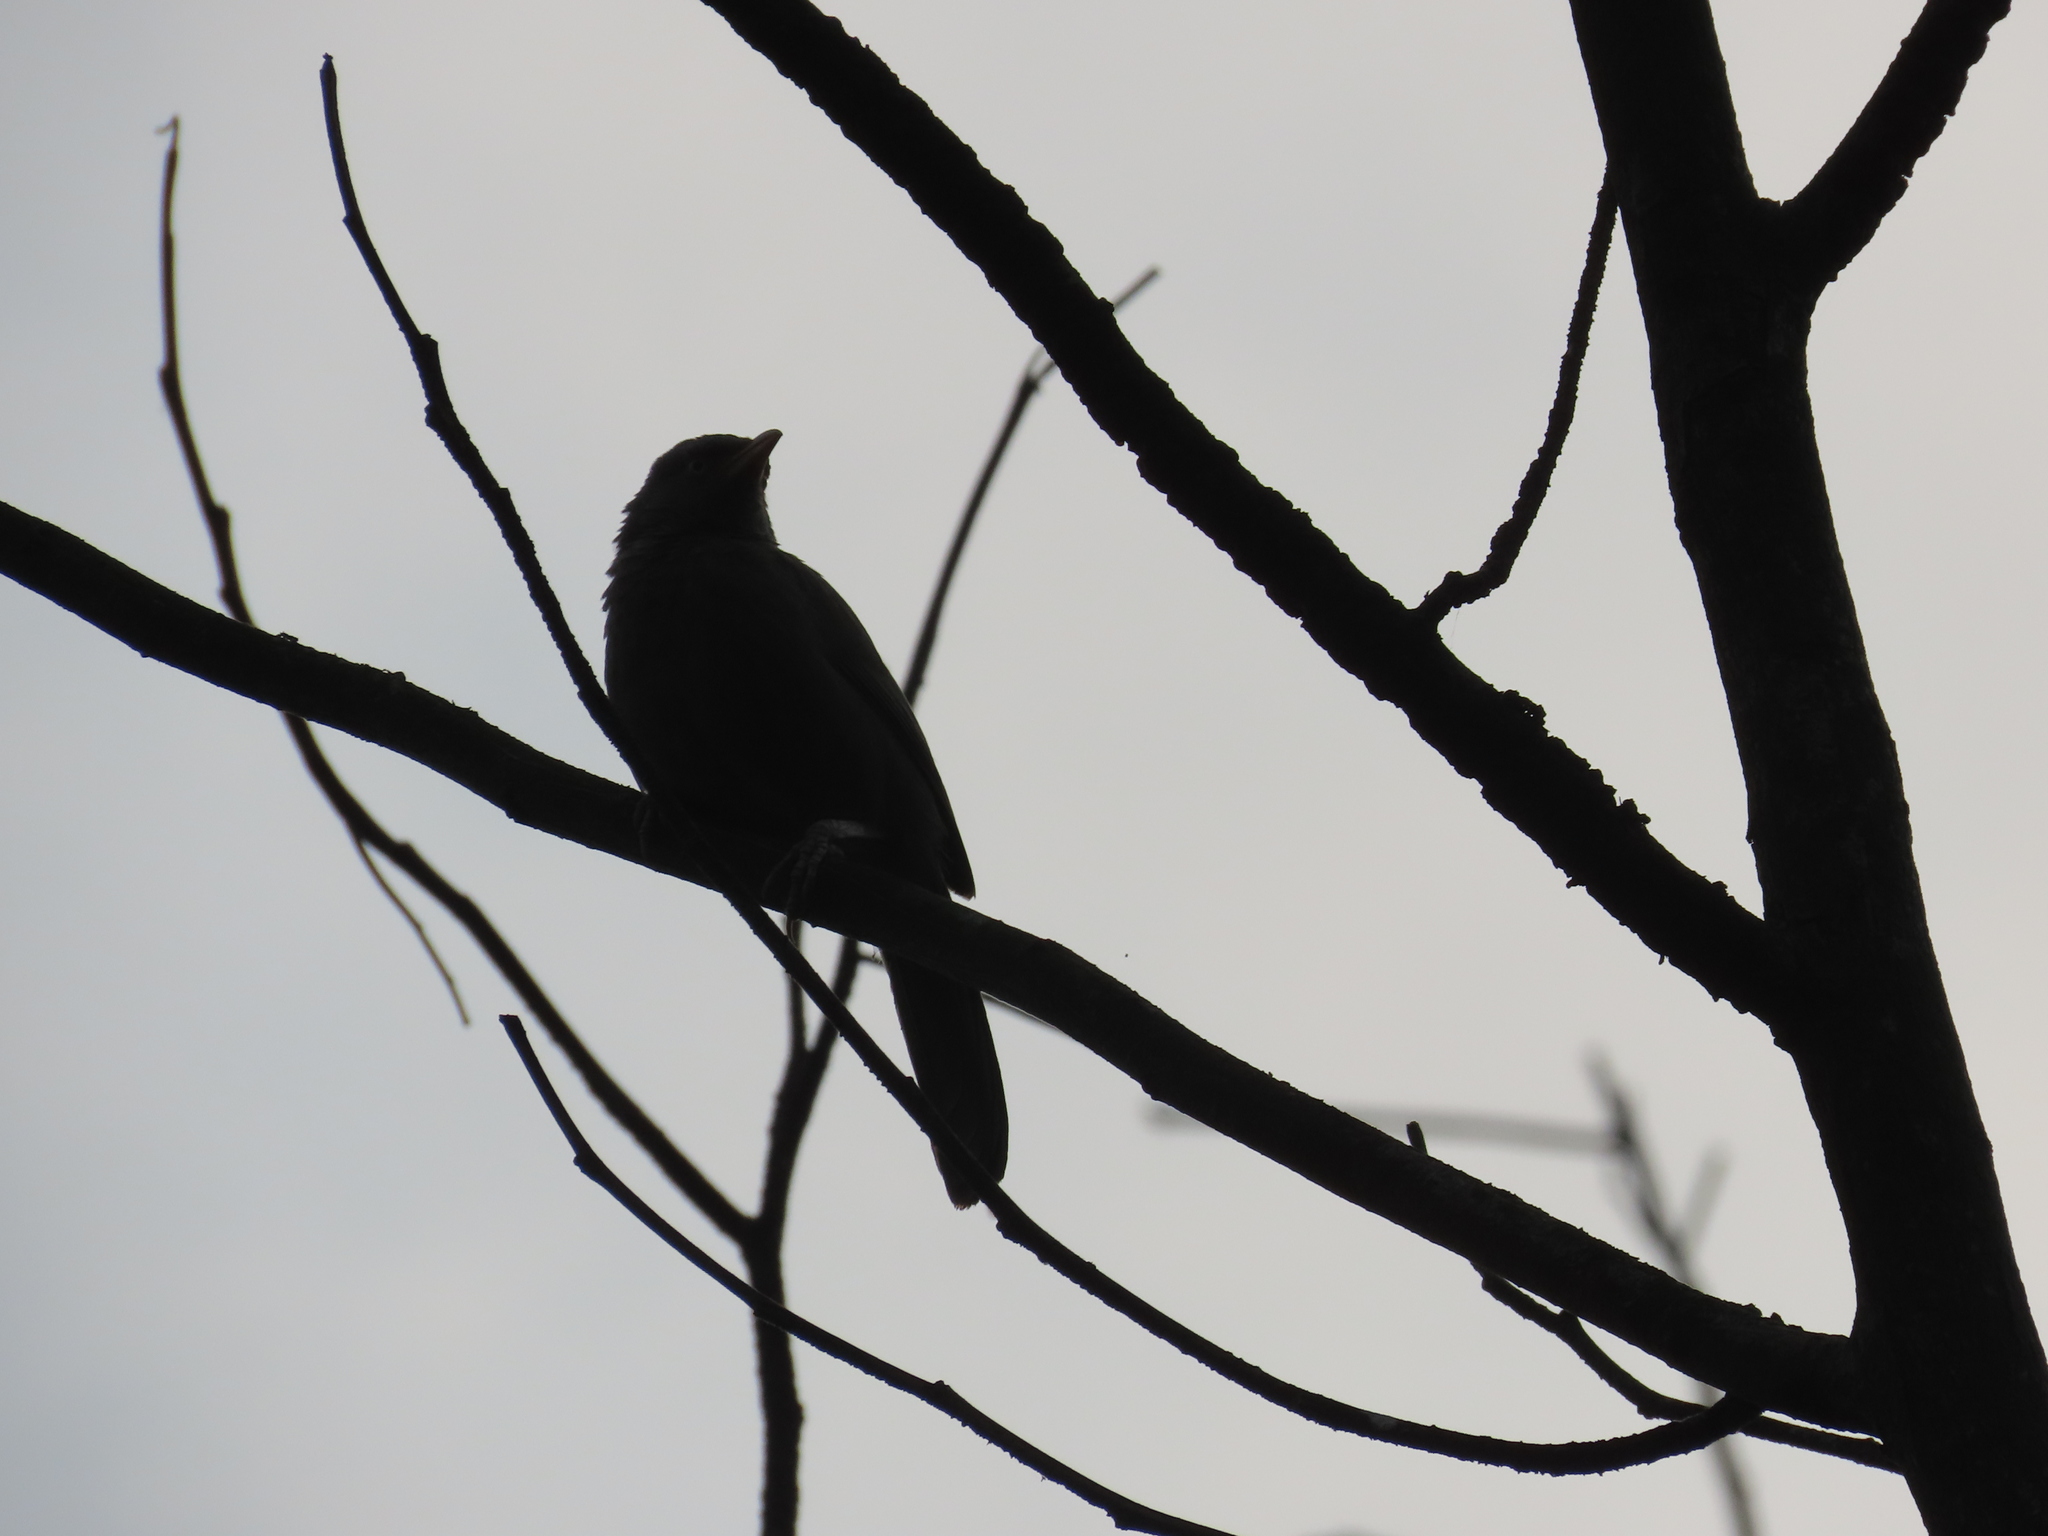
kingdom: Animalia
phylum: Chordata
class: Aves
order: Passeriformes
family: Leiothrichidae
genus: Turdoides
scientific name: Turdoides striata
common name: Jungle babbler
